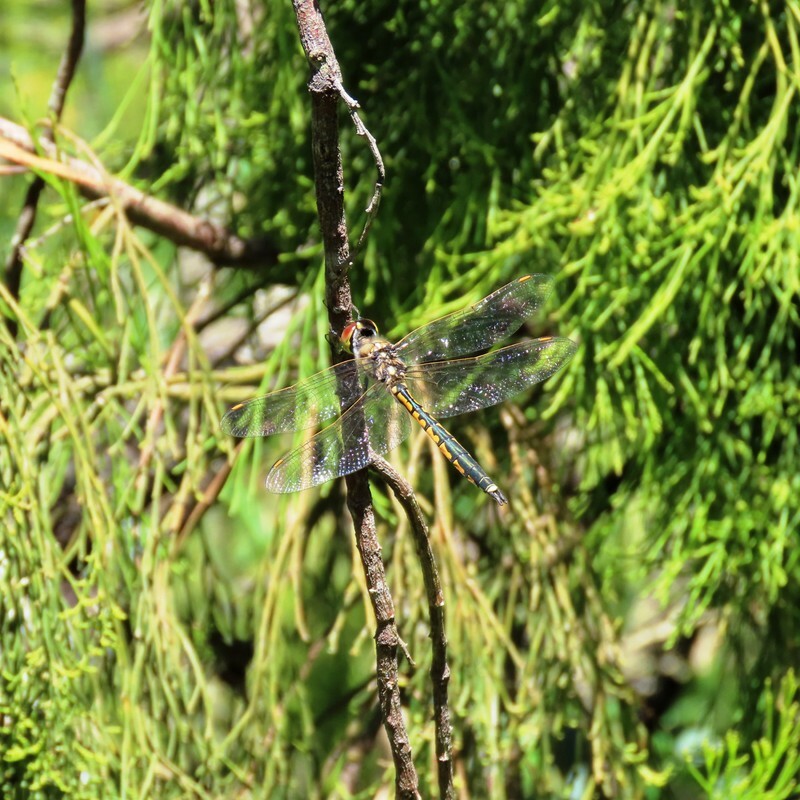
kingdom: Animalia
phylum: Arthropoda
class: Insecta
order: Odonata
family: Corduliidae
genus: Hemicordulia
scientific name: Hemicordulia tau
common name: Tau emerald
